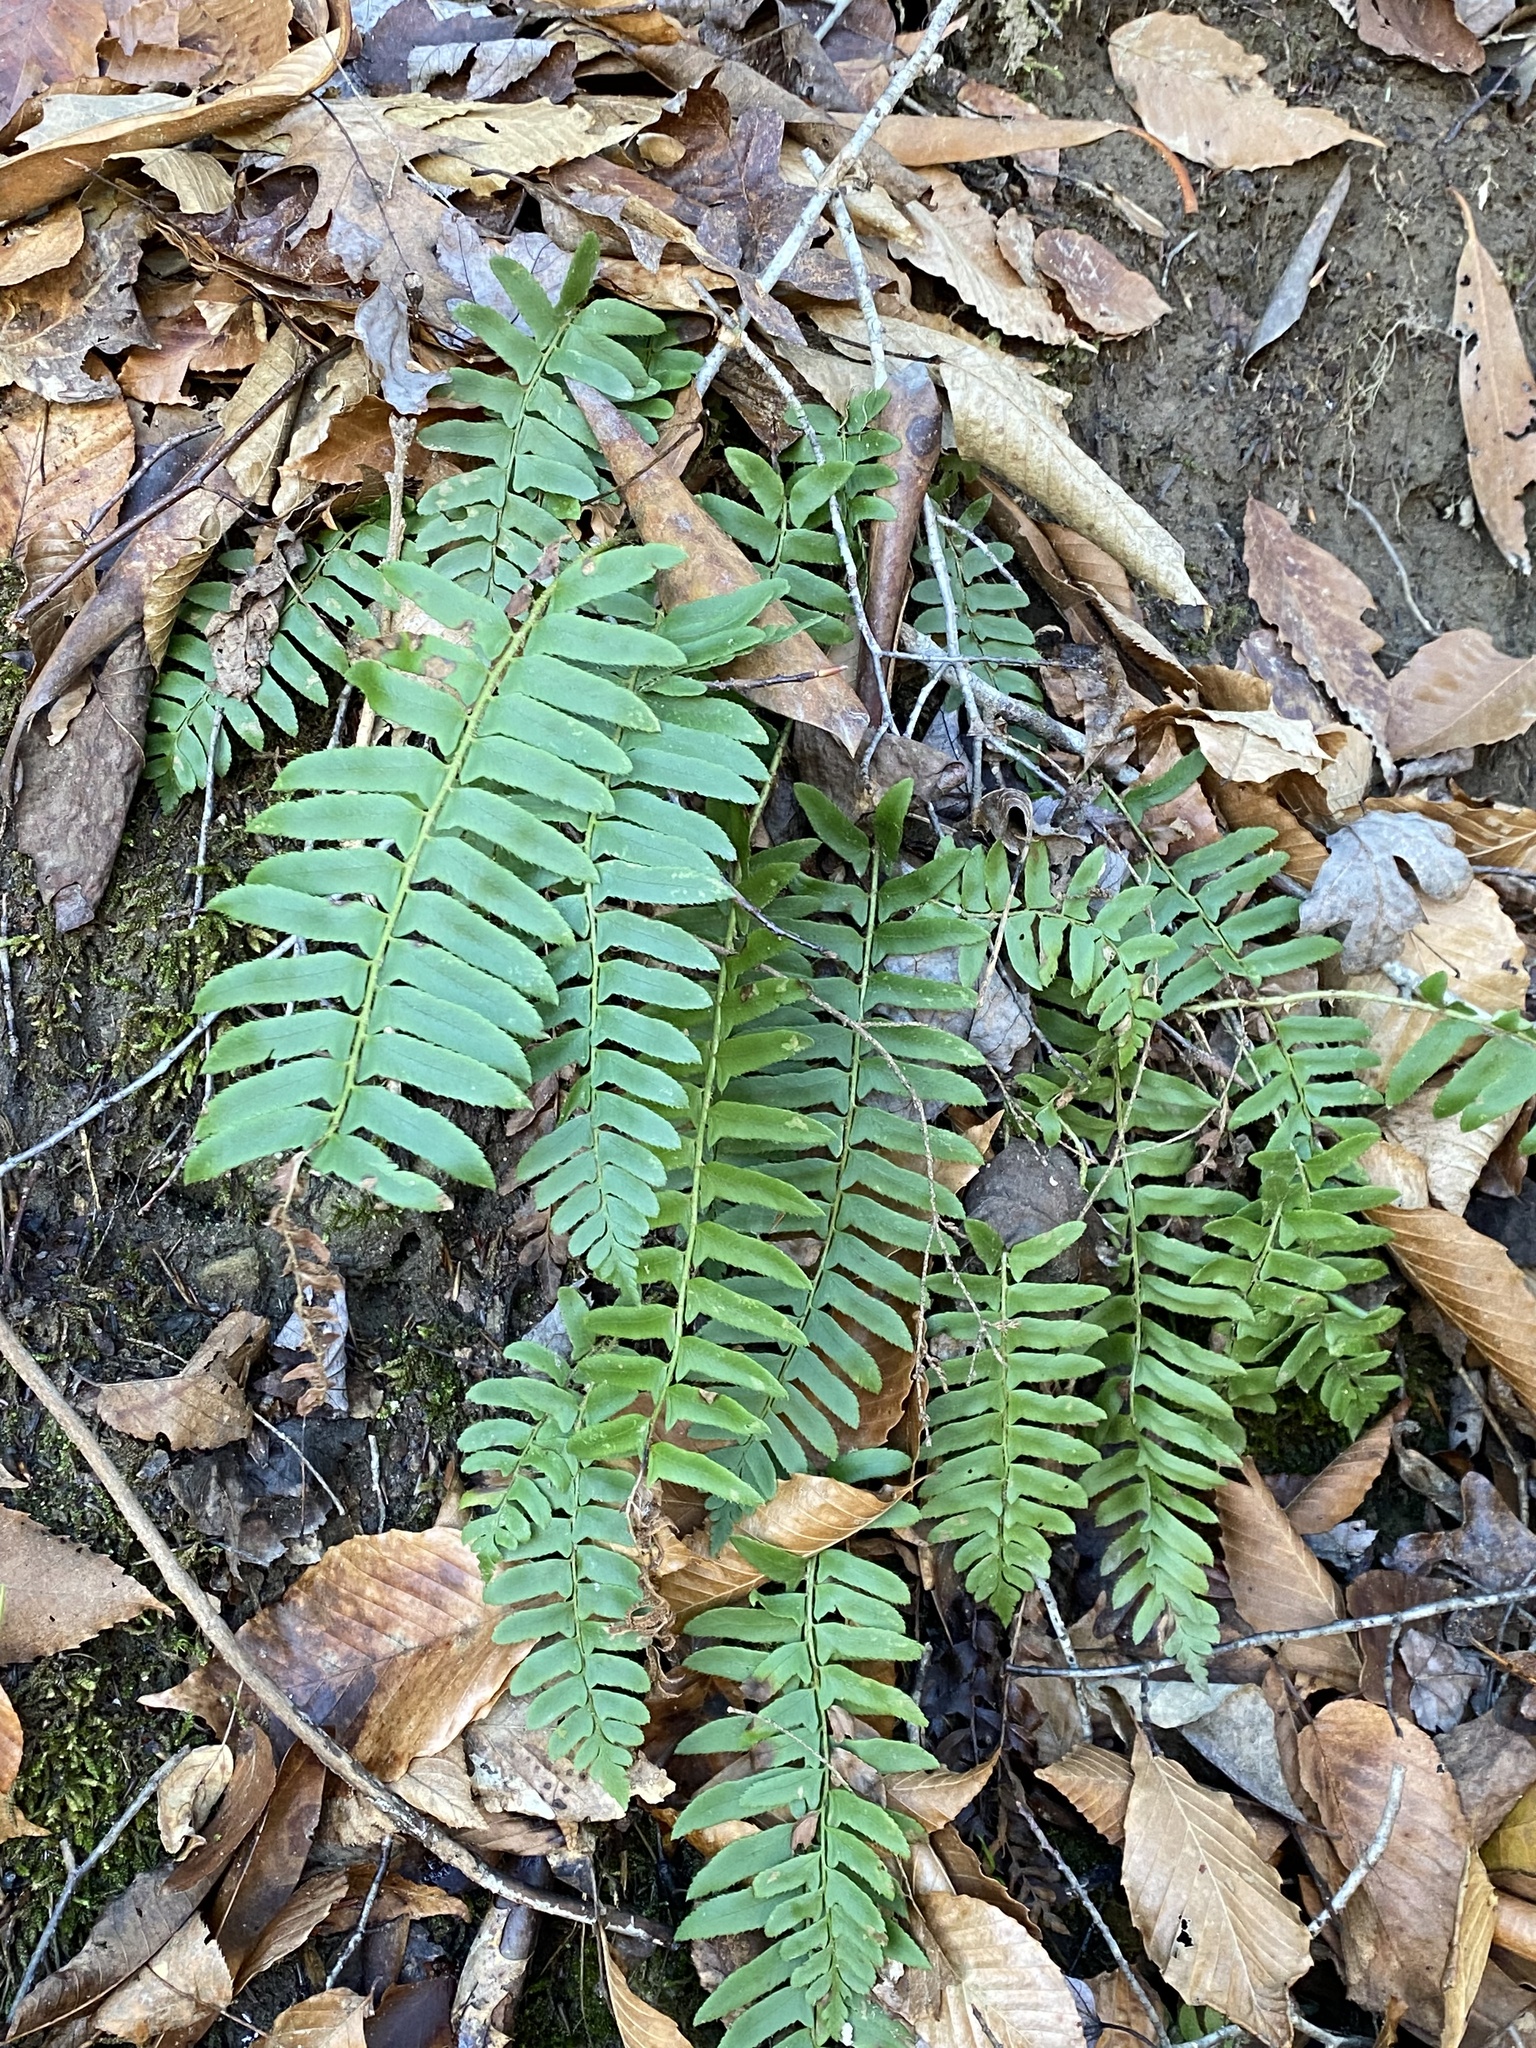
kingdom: Plantae
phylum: Tracheophyta
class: Polypodiopsida
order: Polypodiales
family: Dryopteridaceae
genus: Polystichum
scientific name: Polystichum acrostichoides
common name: Christmas fern
